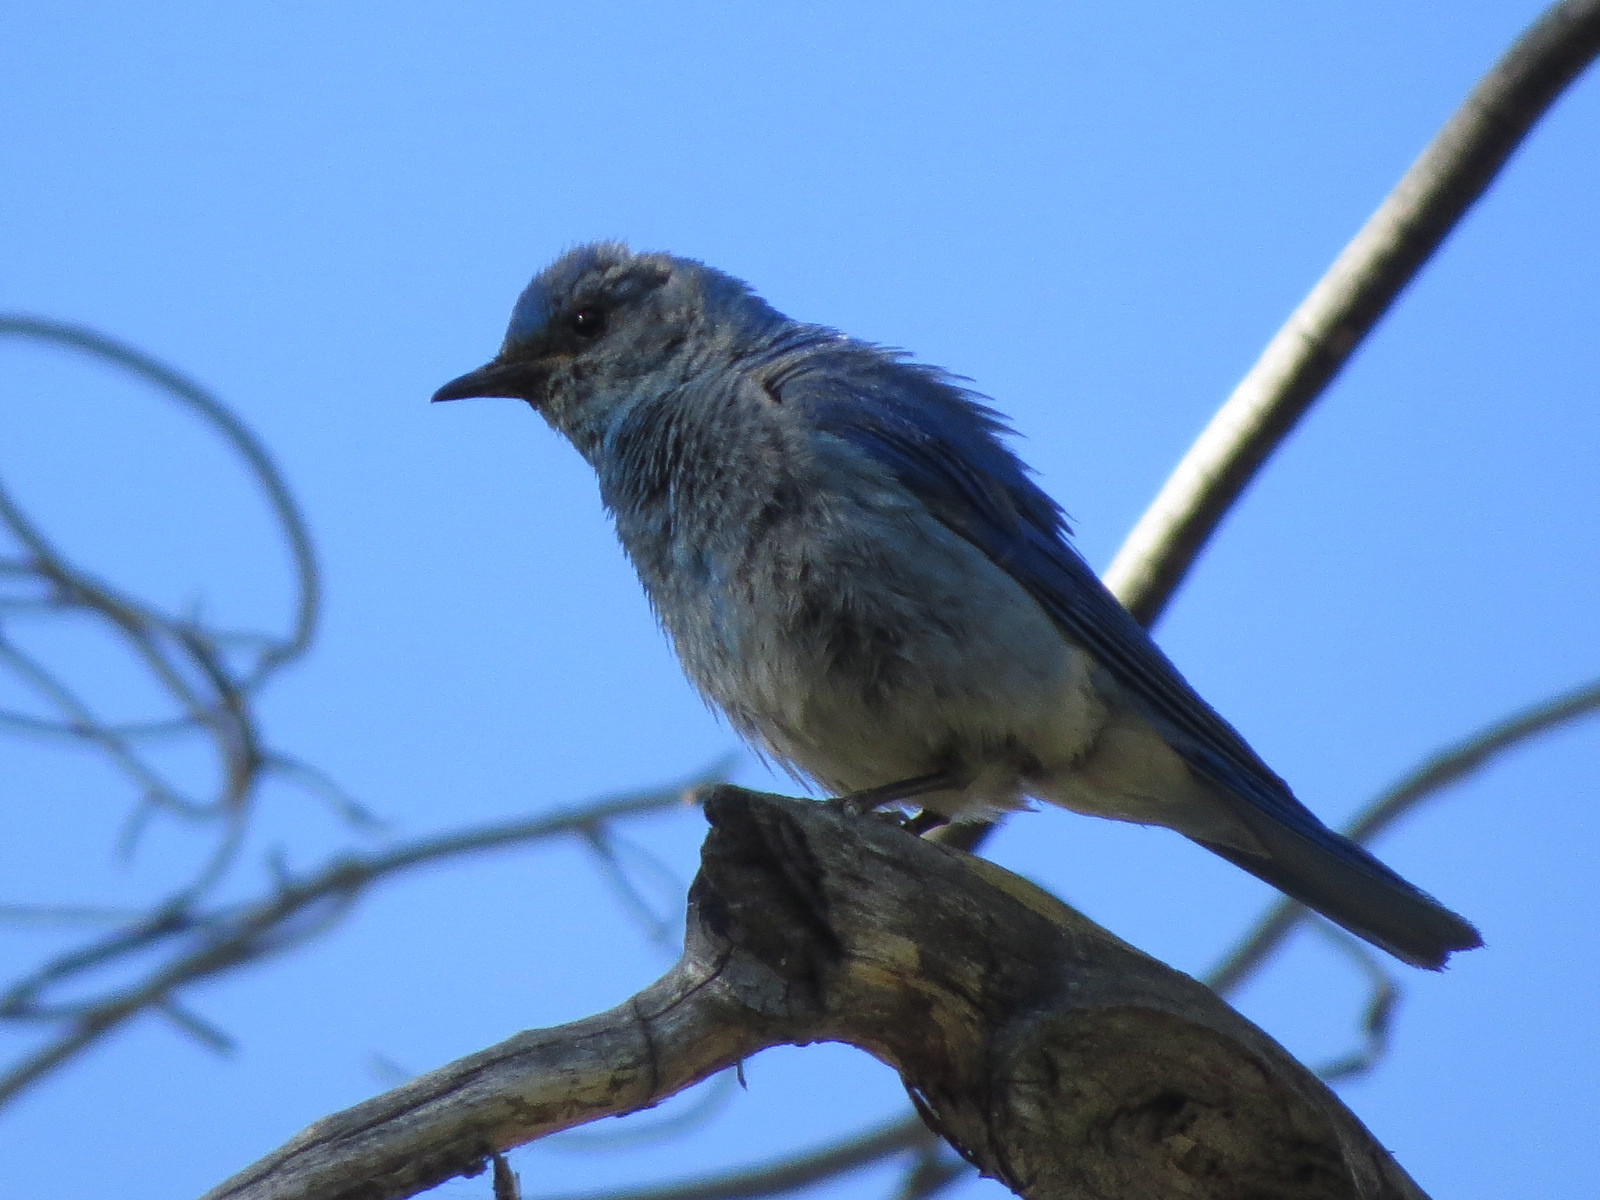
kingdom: Animalia
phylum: Chordata
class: Aves
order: Passeriformes
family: Turdidae
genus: Sialia
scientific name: Sialia currucoides
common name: Mountain bluebird
